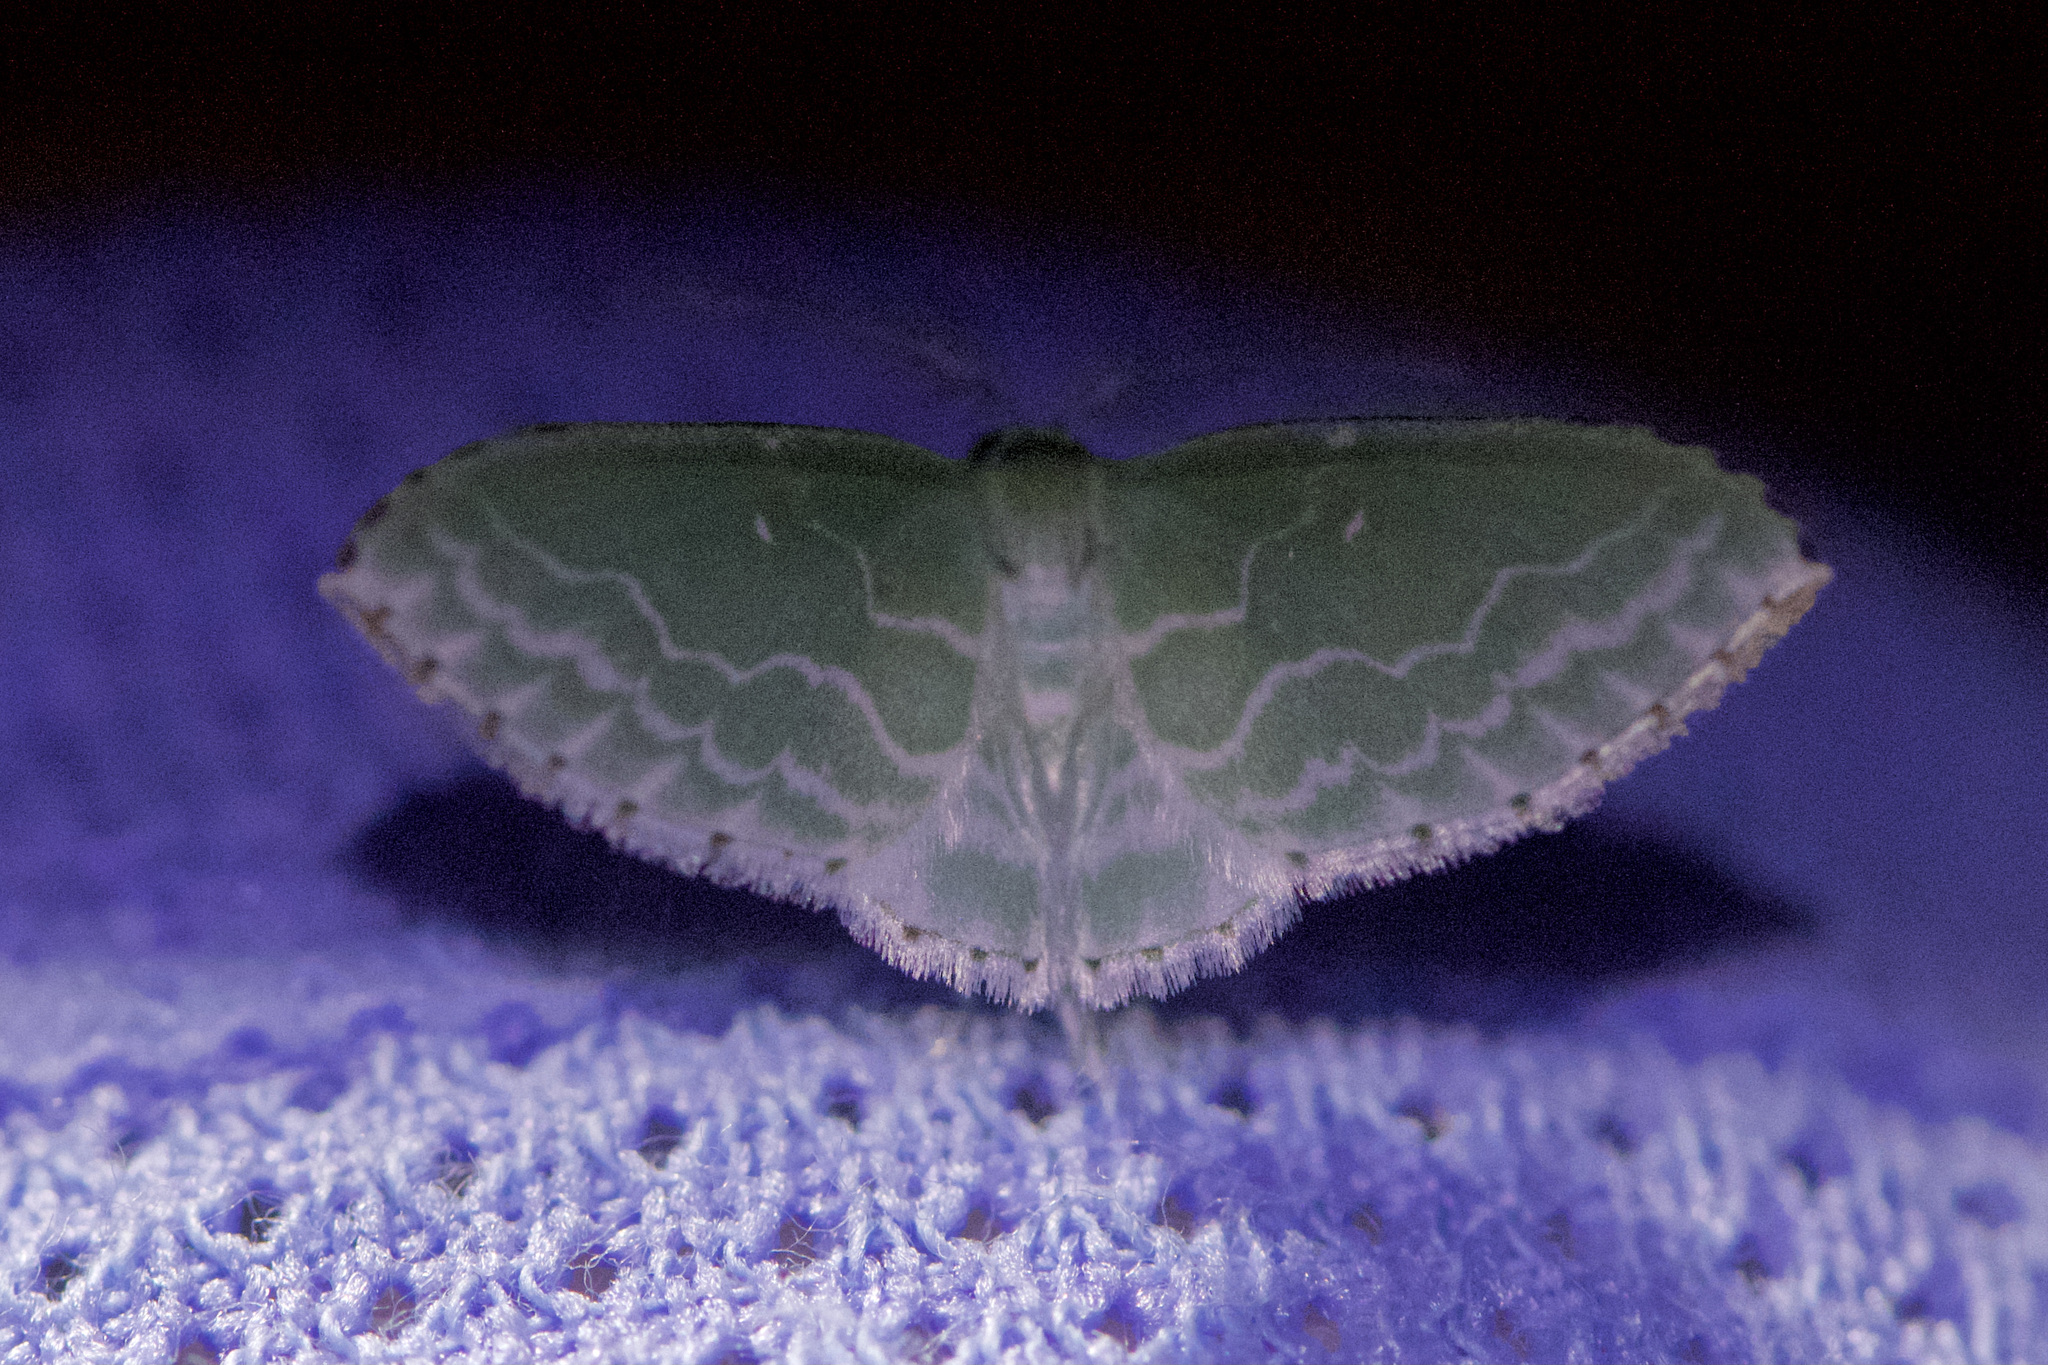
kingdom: Animalia
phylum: Arthropoda
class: Insecta
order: Lepidoptera
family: Geometridae
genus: Synchlora
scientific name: Synchlora frondaria
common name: Southern emerald
